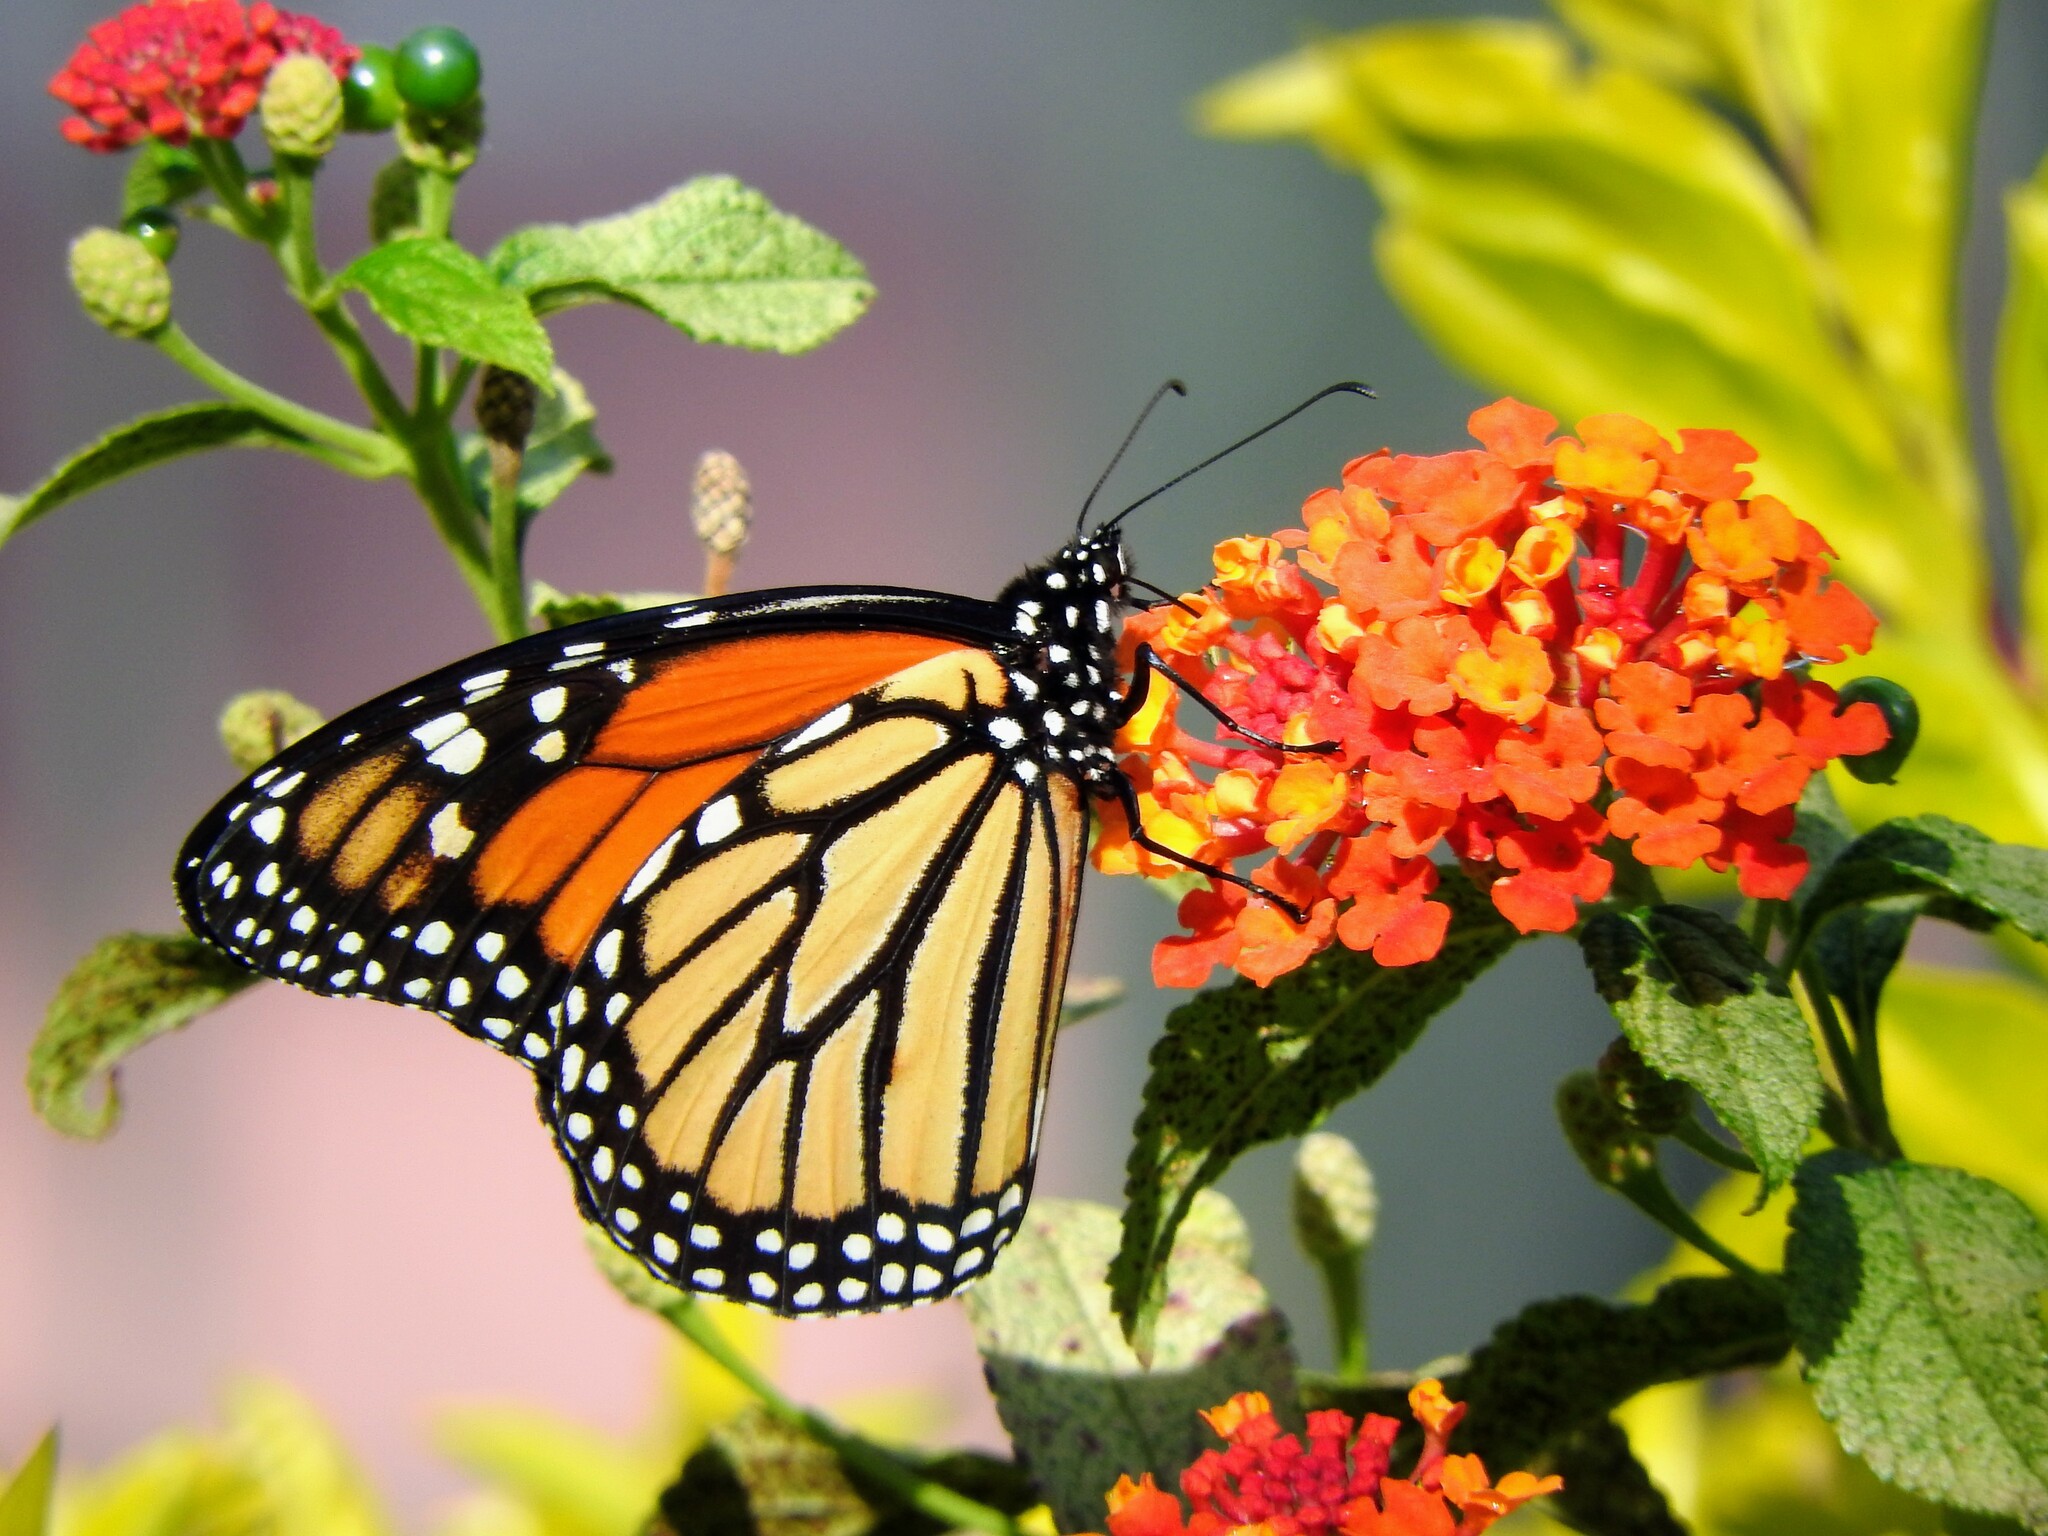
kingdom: Animalia
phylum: Arthropoda
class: Insecta
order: Lepidoptera
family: Nymphalidae
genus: Danaus
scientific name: Danaus plexippus
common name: Monarch
